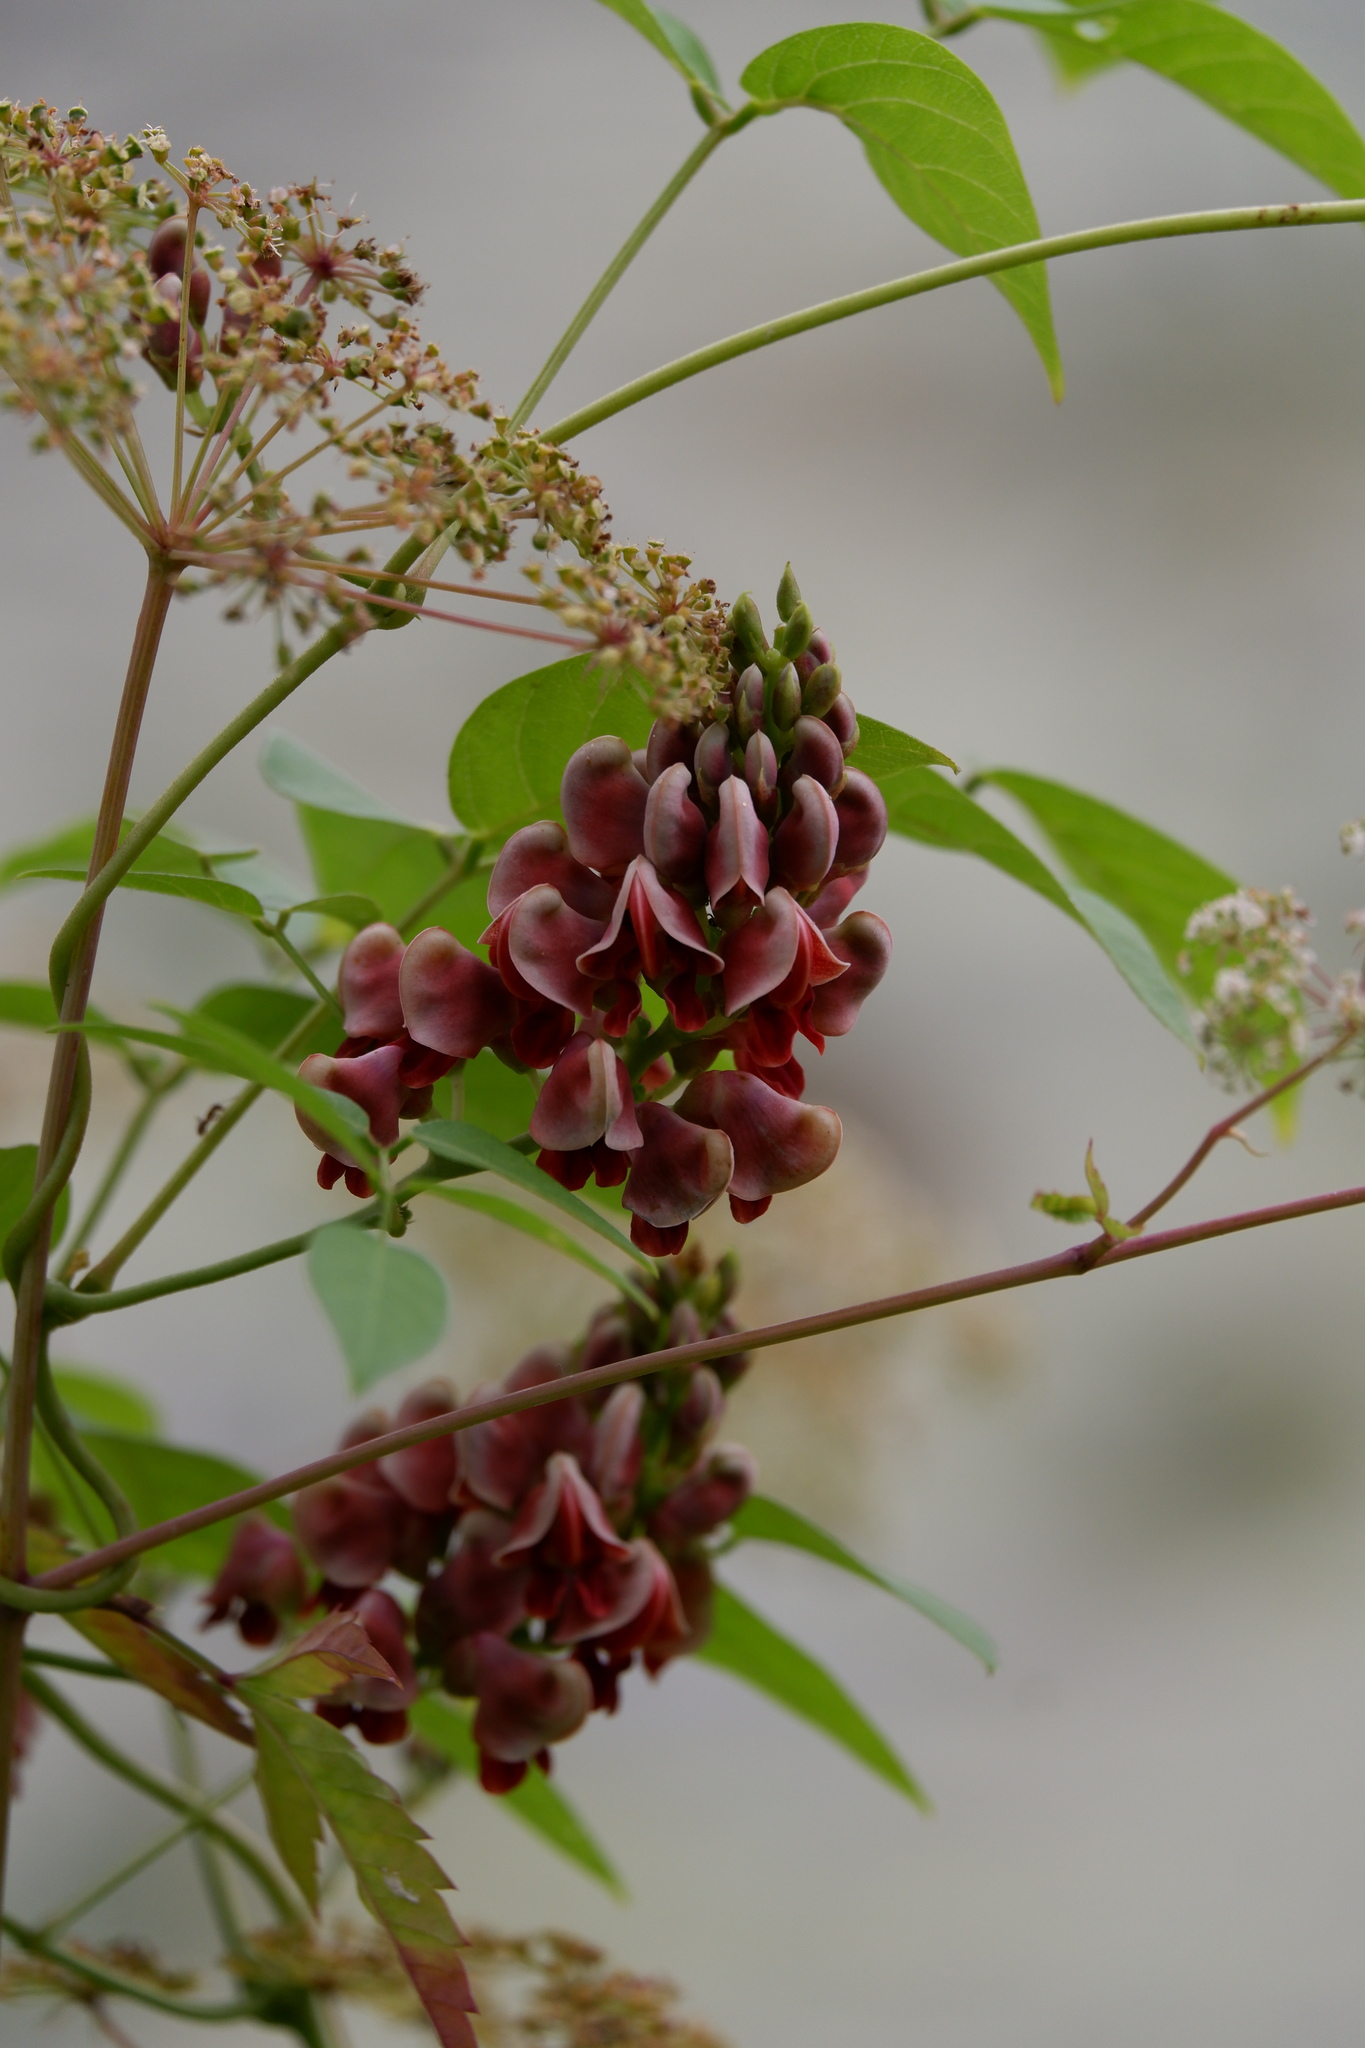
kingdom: Plantae
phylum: Tracheophyta
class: Magnoliopsida
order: Fabales
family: Fabaceae
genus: Apios
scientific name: Apios americana
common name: American potato-bean
